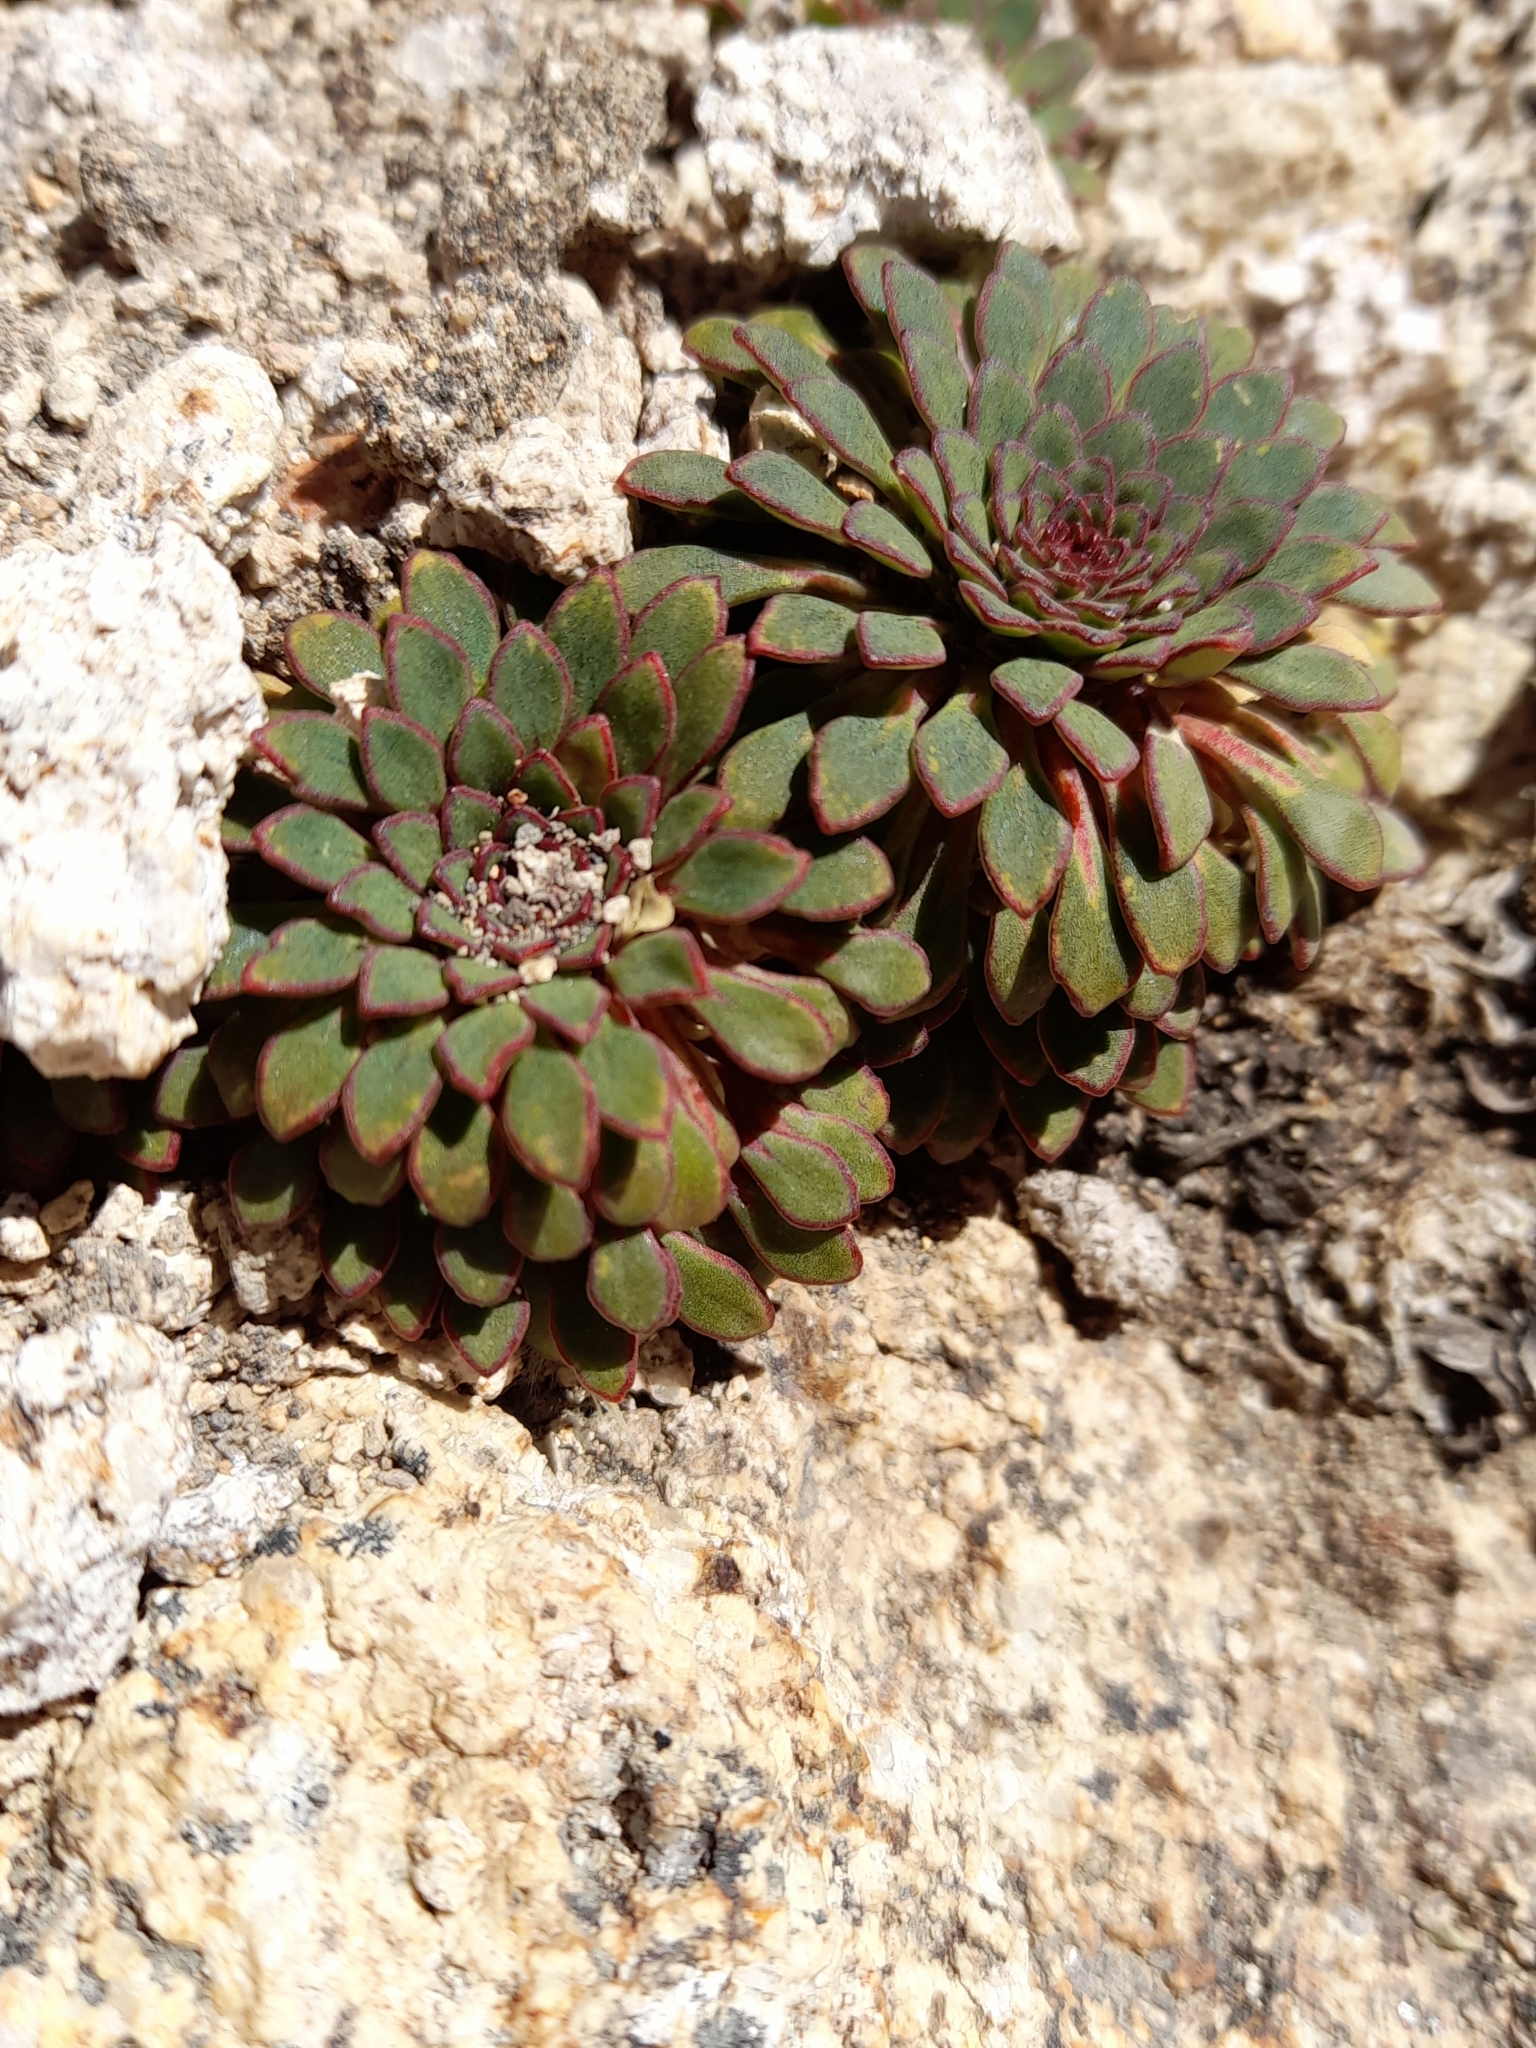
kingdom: Plantae
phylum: Tracheophyta
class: Magnoliopsida
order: Malpighiales
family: Violaceae
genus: Viola
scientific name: Viola sacculus
